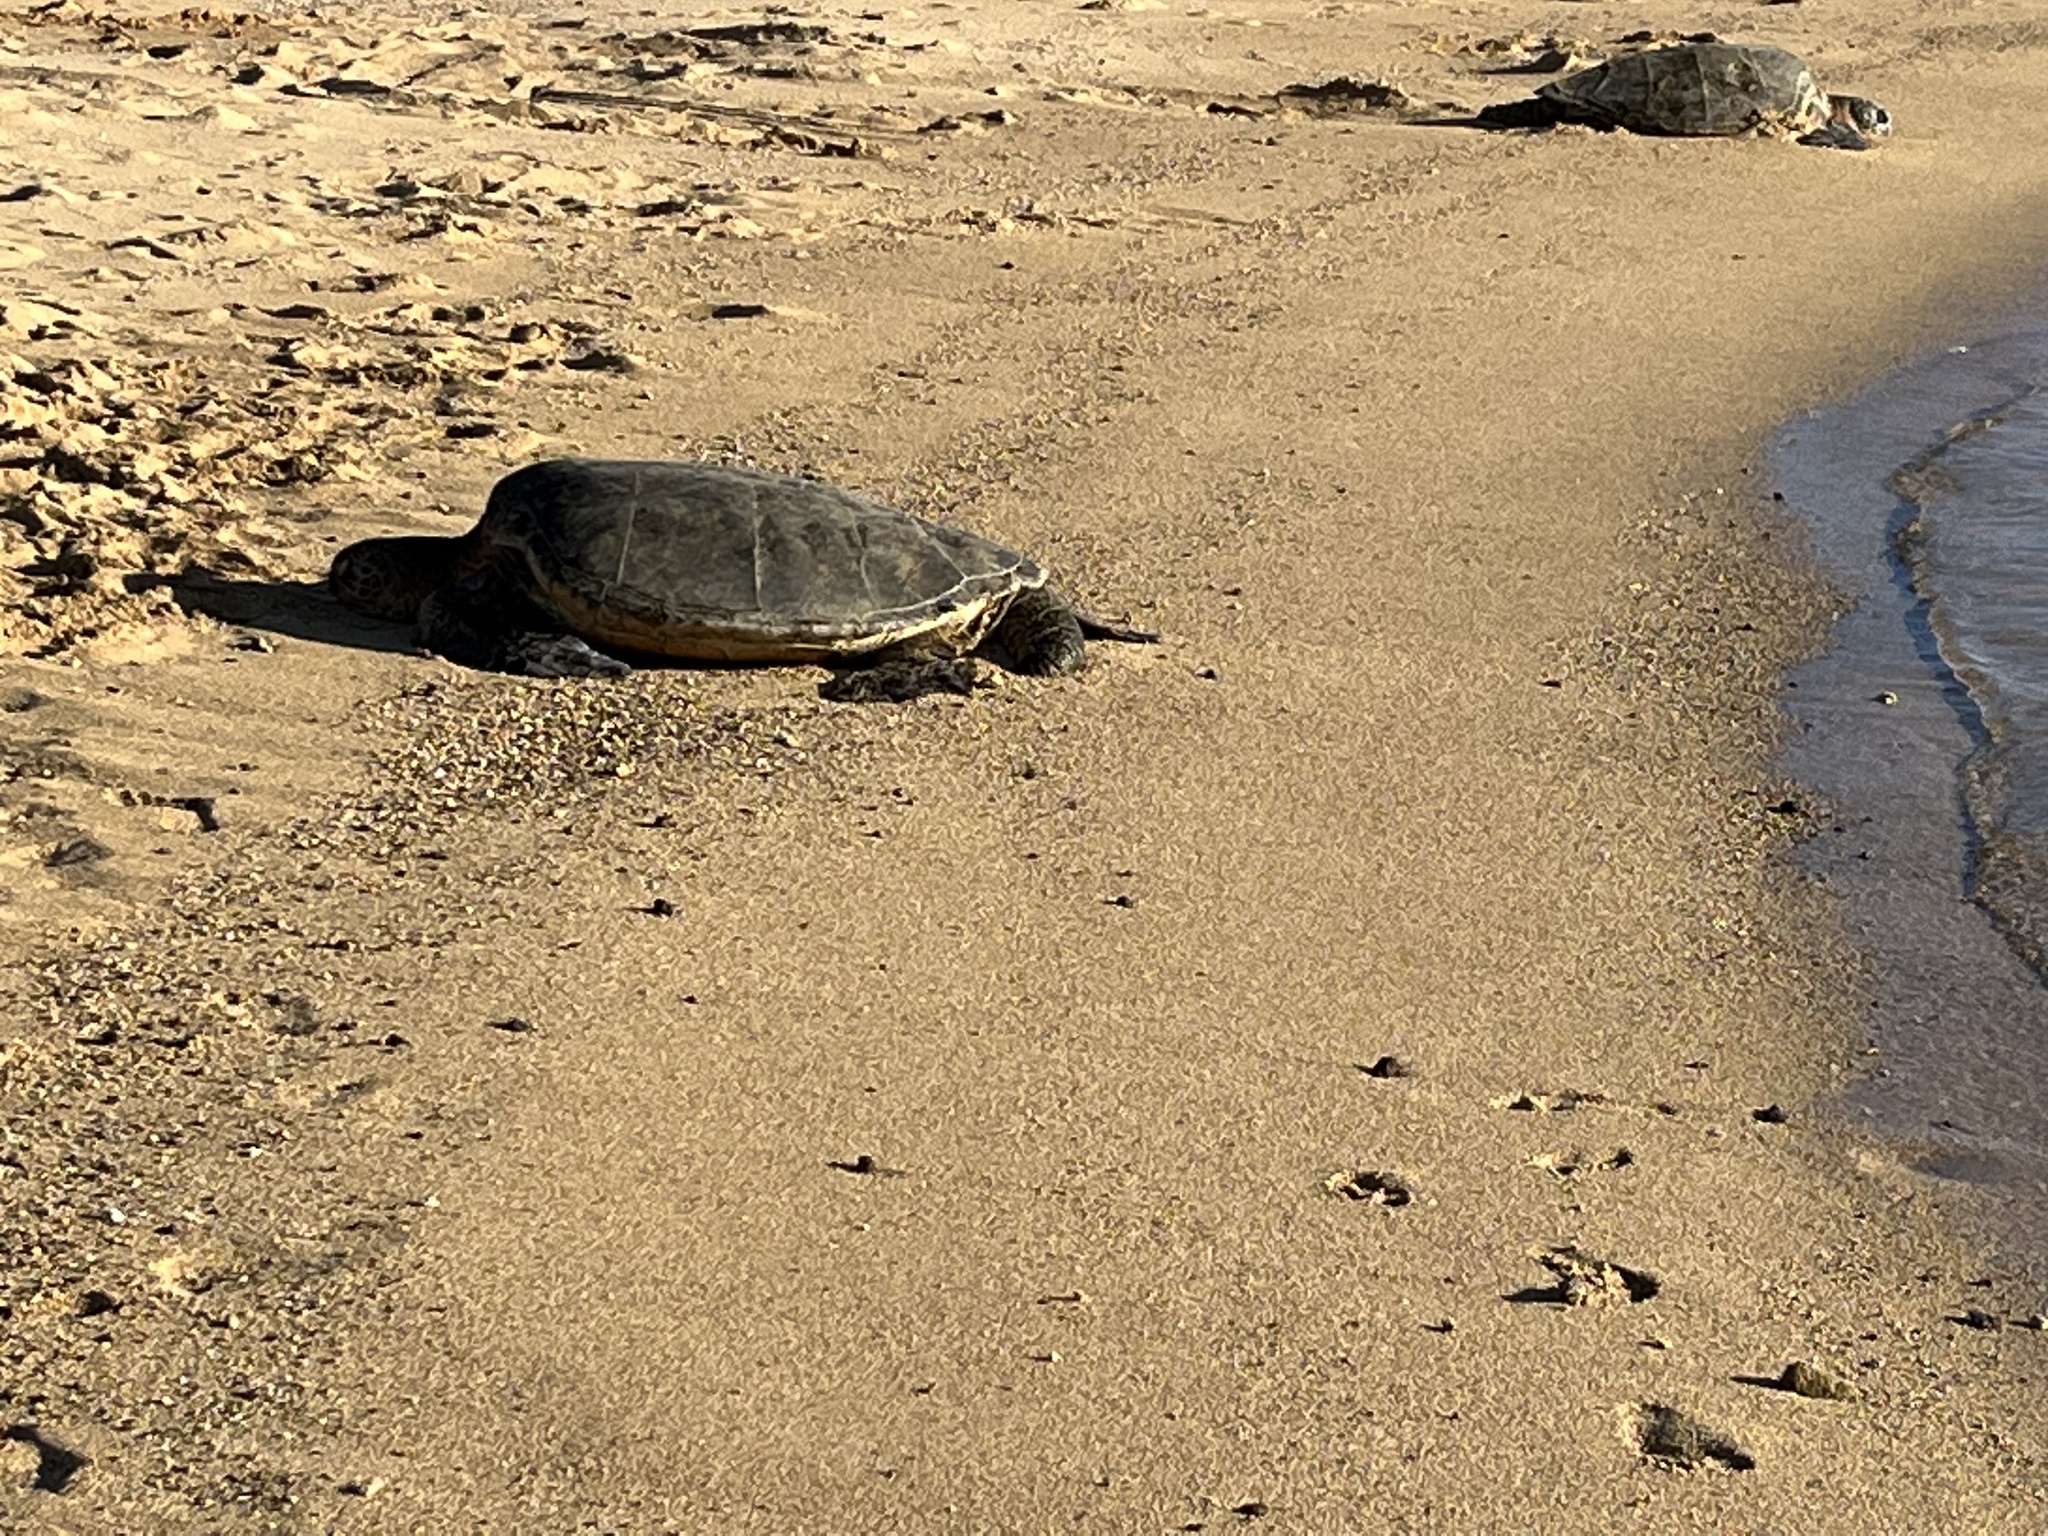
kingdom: Animalia
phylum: Chordata
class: Testudines
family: Cheloniidae
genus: Chelonia
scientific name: Chelonia mydas
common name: Green turtle
